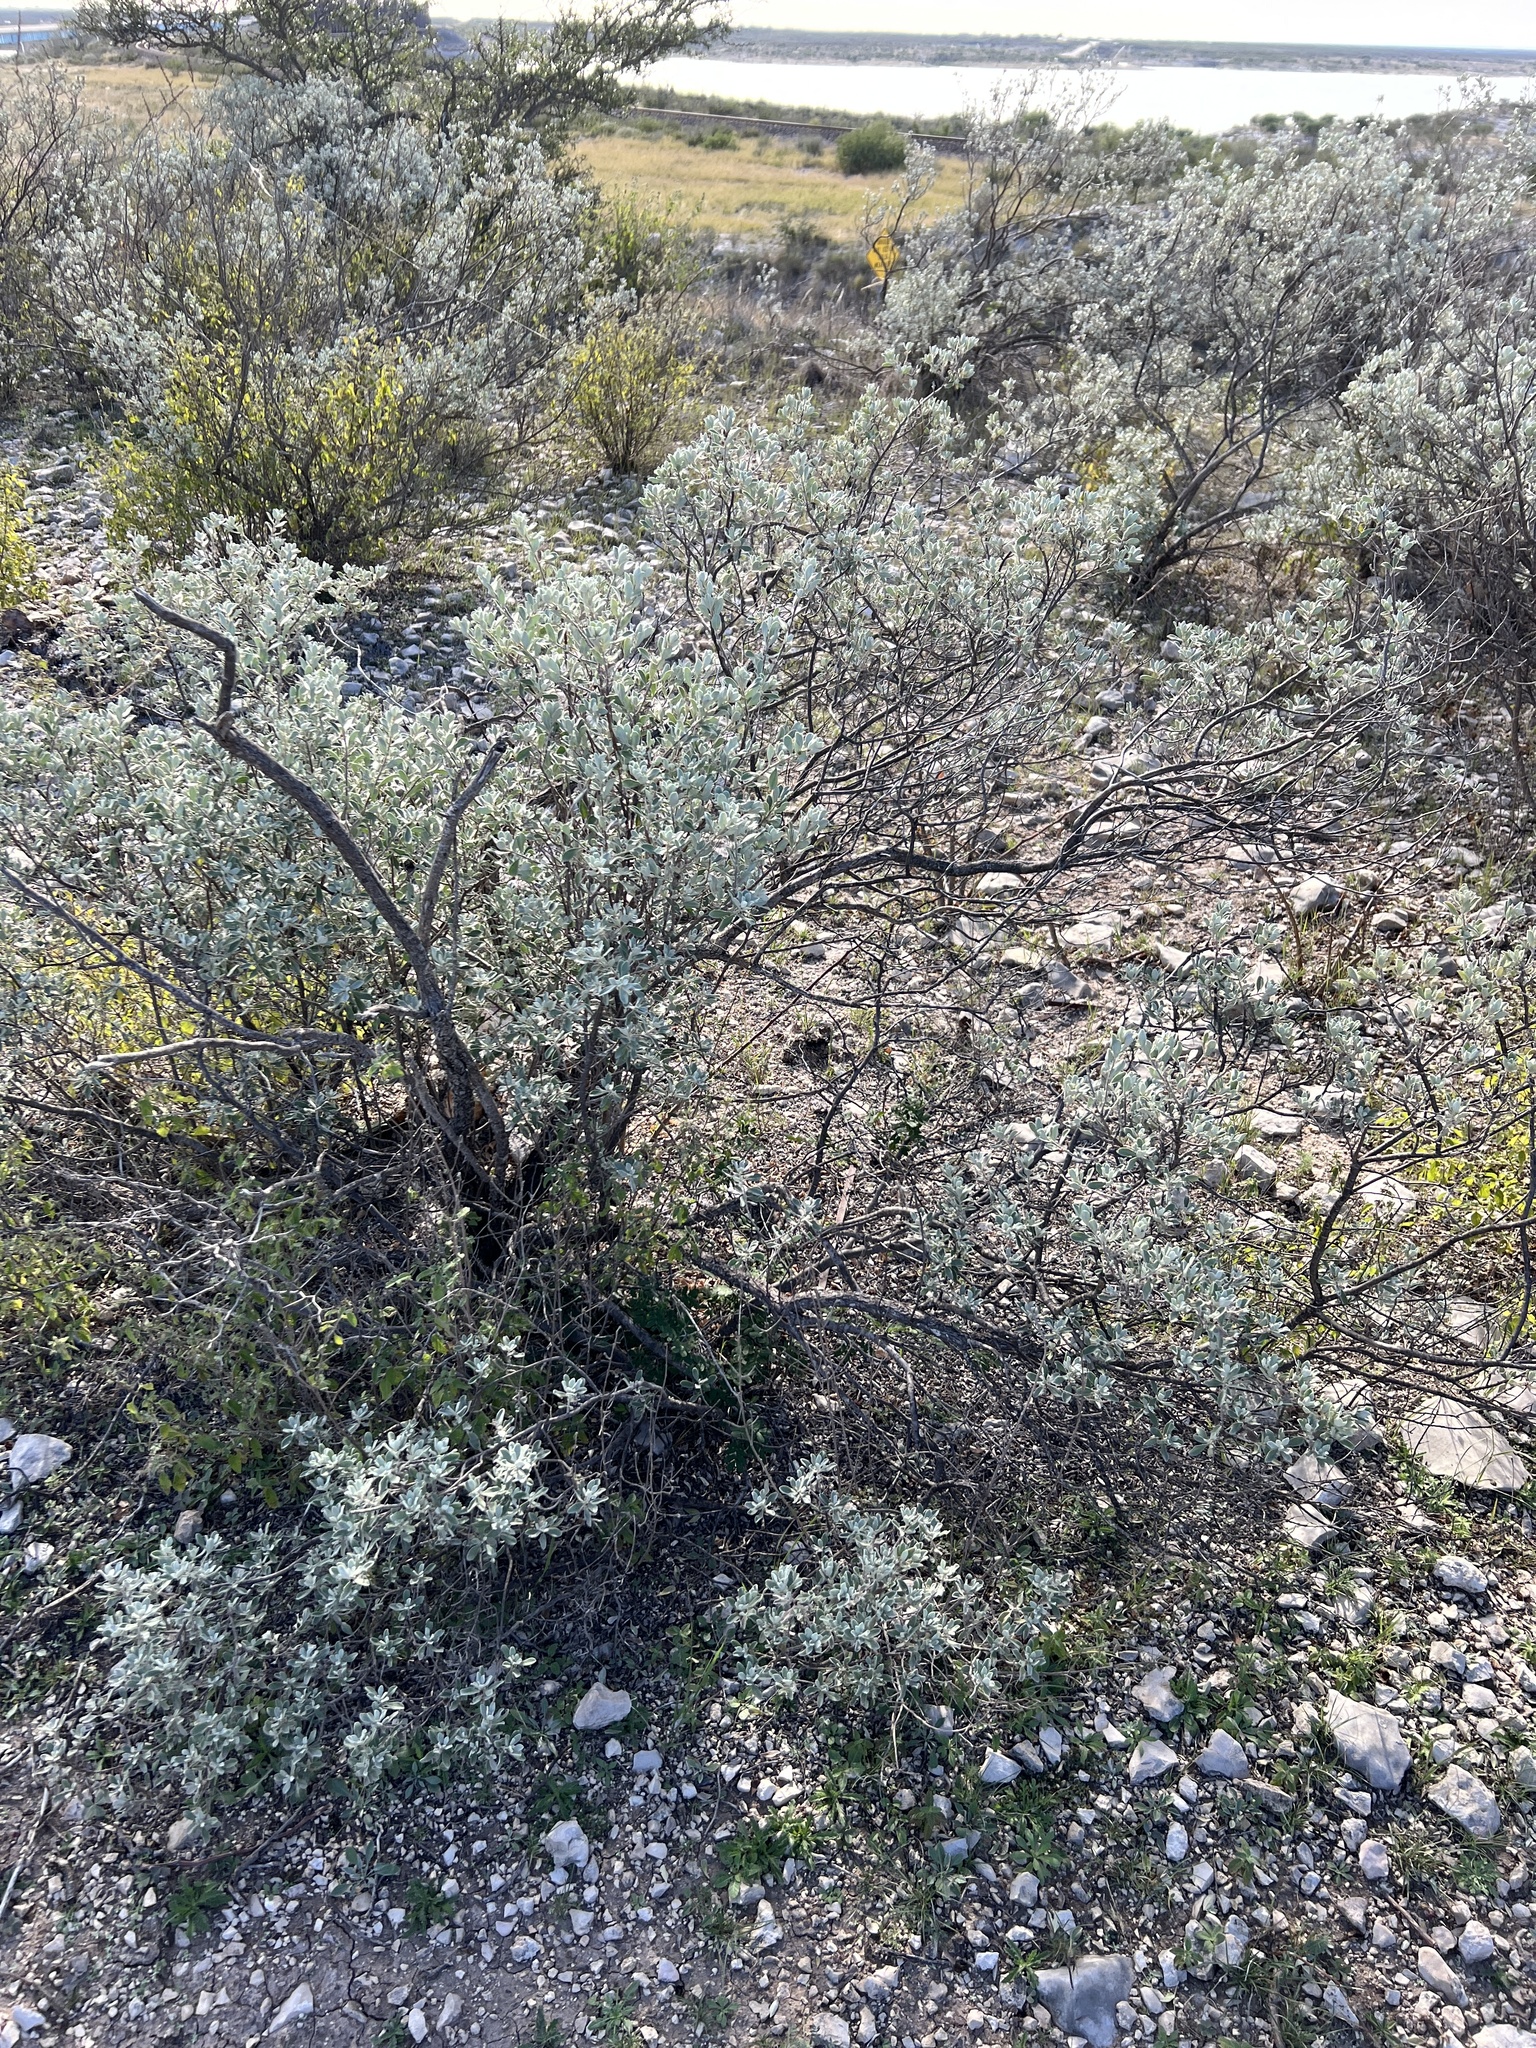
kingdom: Plantae
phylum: Tracheophyta
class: Magnoliopsida
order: Lamiales
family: Scrophulariaceae
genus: Leucophyllum
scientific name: Leucophyllum frutescens
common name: Texas silverleaf
